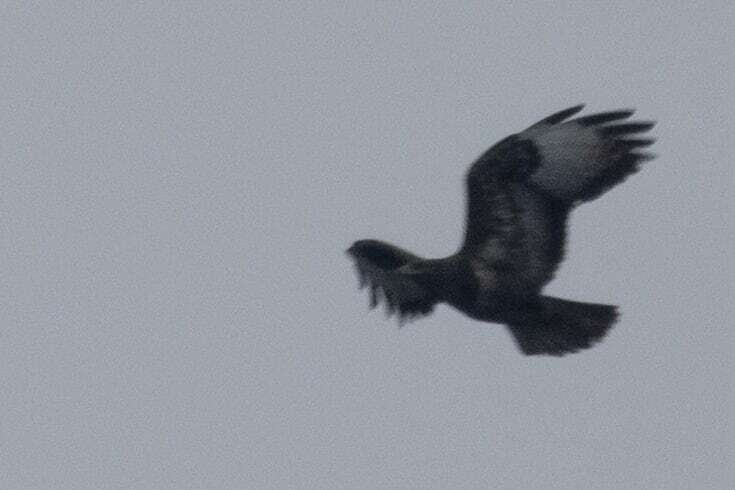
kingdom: Animalia
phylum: Chordata
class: Aves
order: Accipitriformes
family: Accipitridae
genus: Buteo
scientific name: Buteo buteo
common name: Common buzzard
